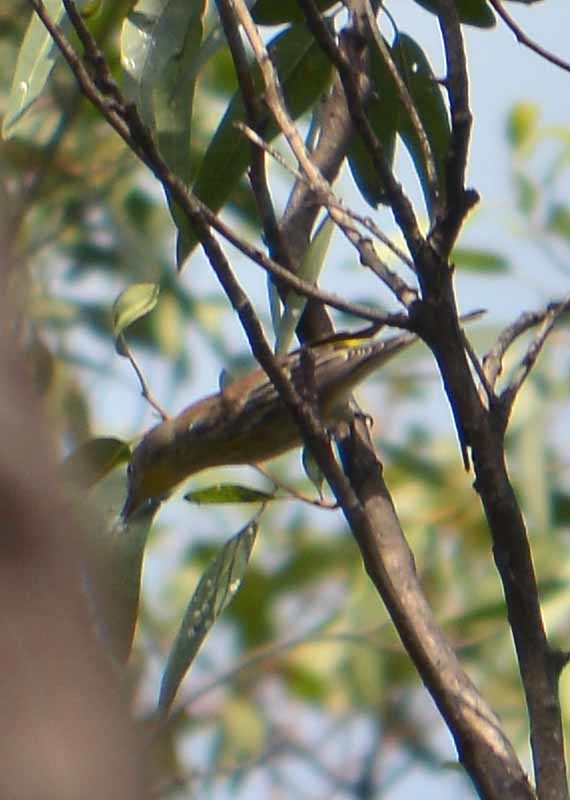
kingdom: Animalia
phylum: Chordata
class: Aves
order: Passeriformes
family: Parulidae
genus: Setophaga
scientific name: Setophaga coronata
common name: Myrtle warbler
